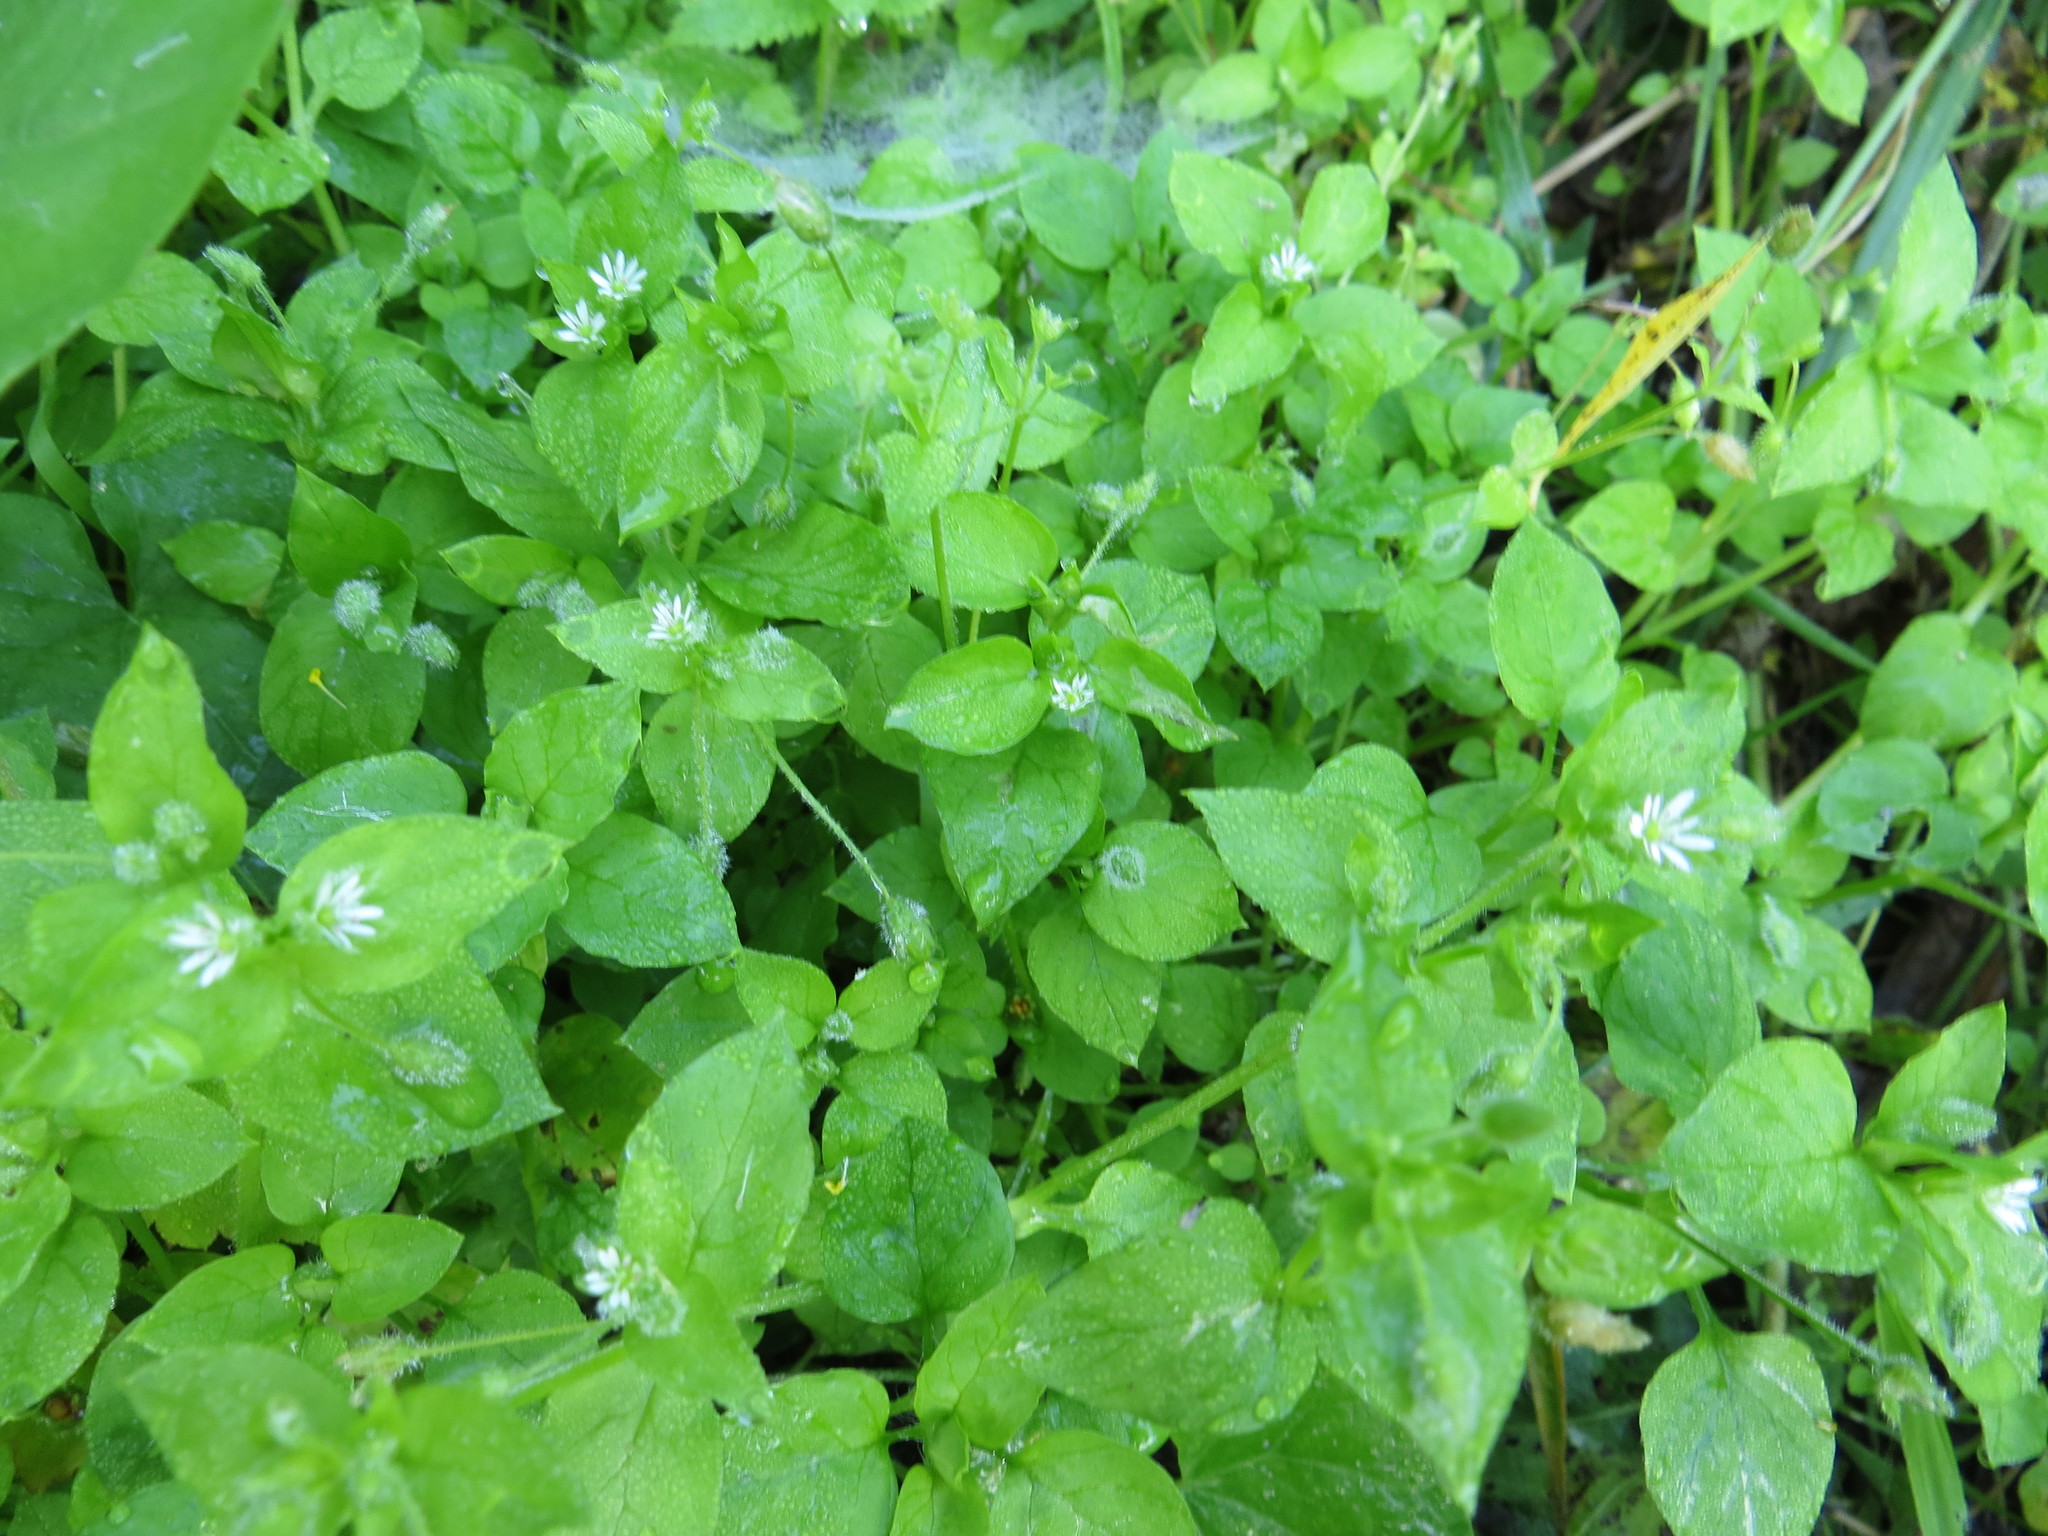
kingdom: Plantae
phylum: Tracheophyta
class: Magnoliopsida
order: Caryophyllales
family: Caryophyllaceae
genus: Stellaria
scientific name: Stellaria media
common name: Common chickweed
